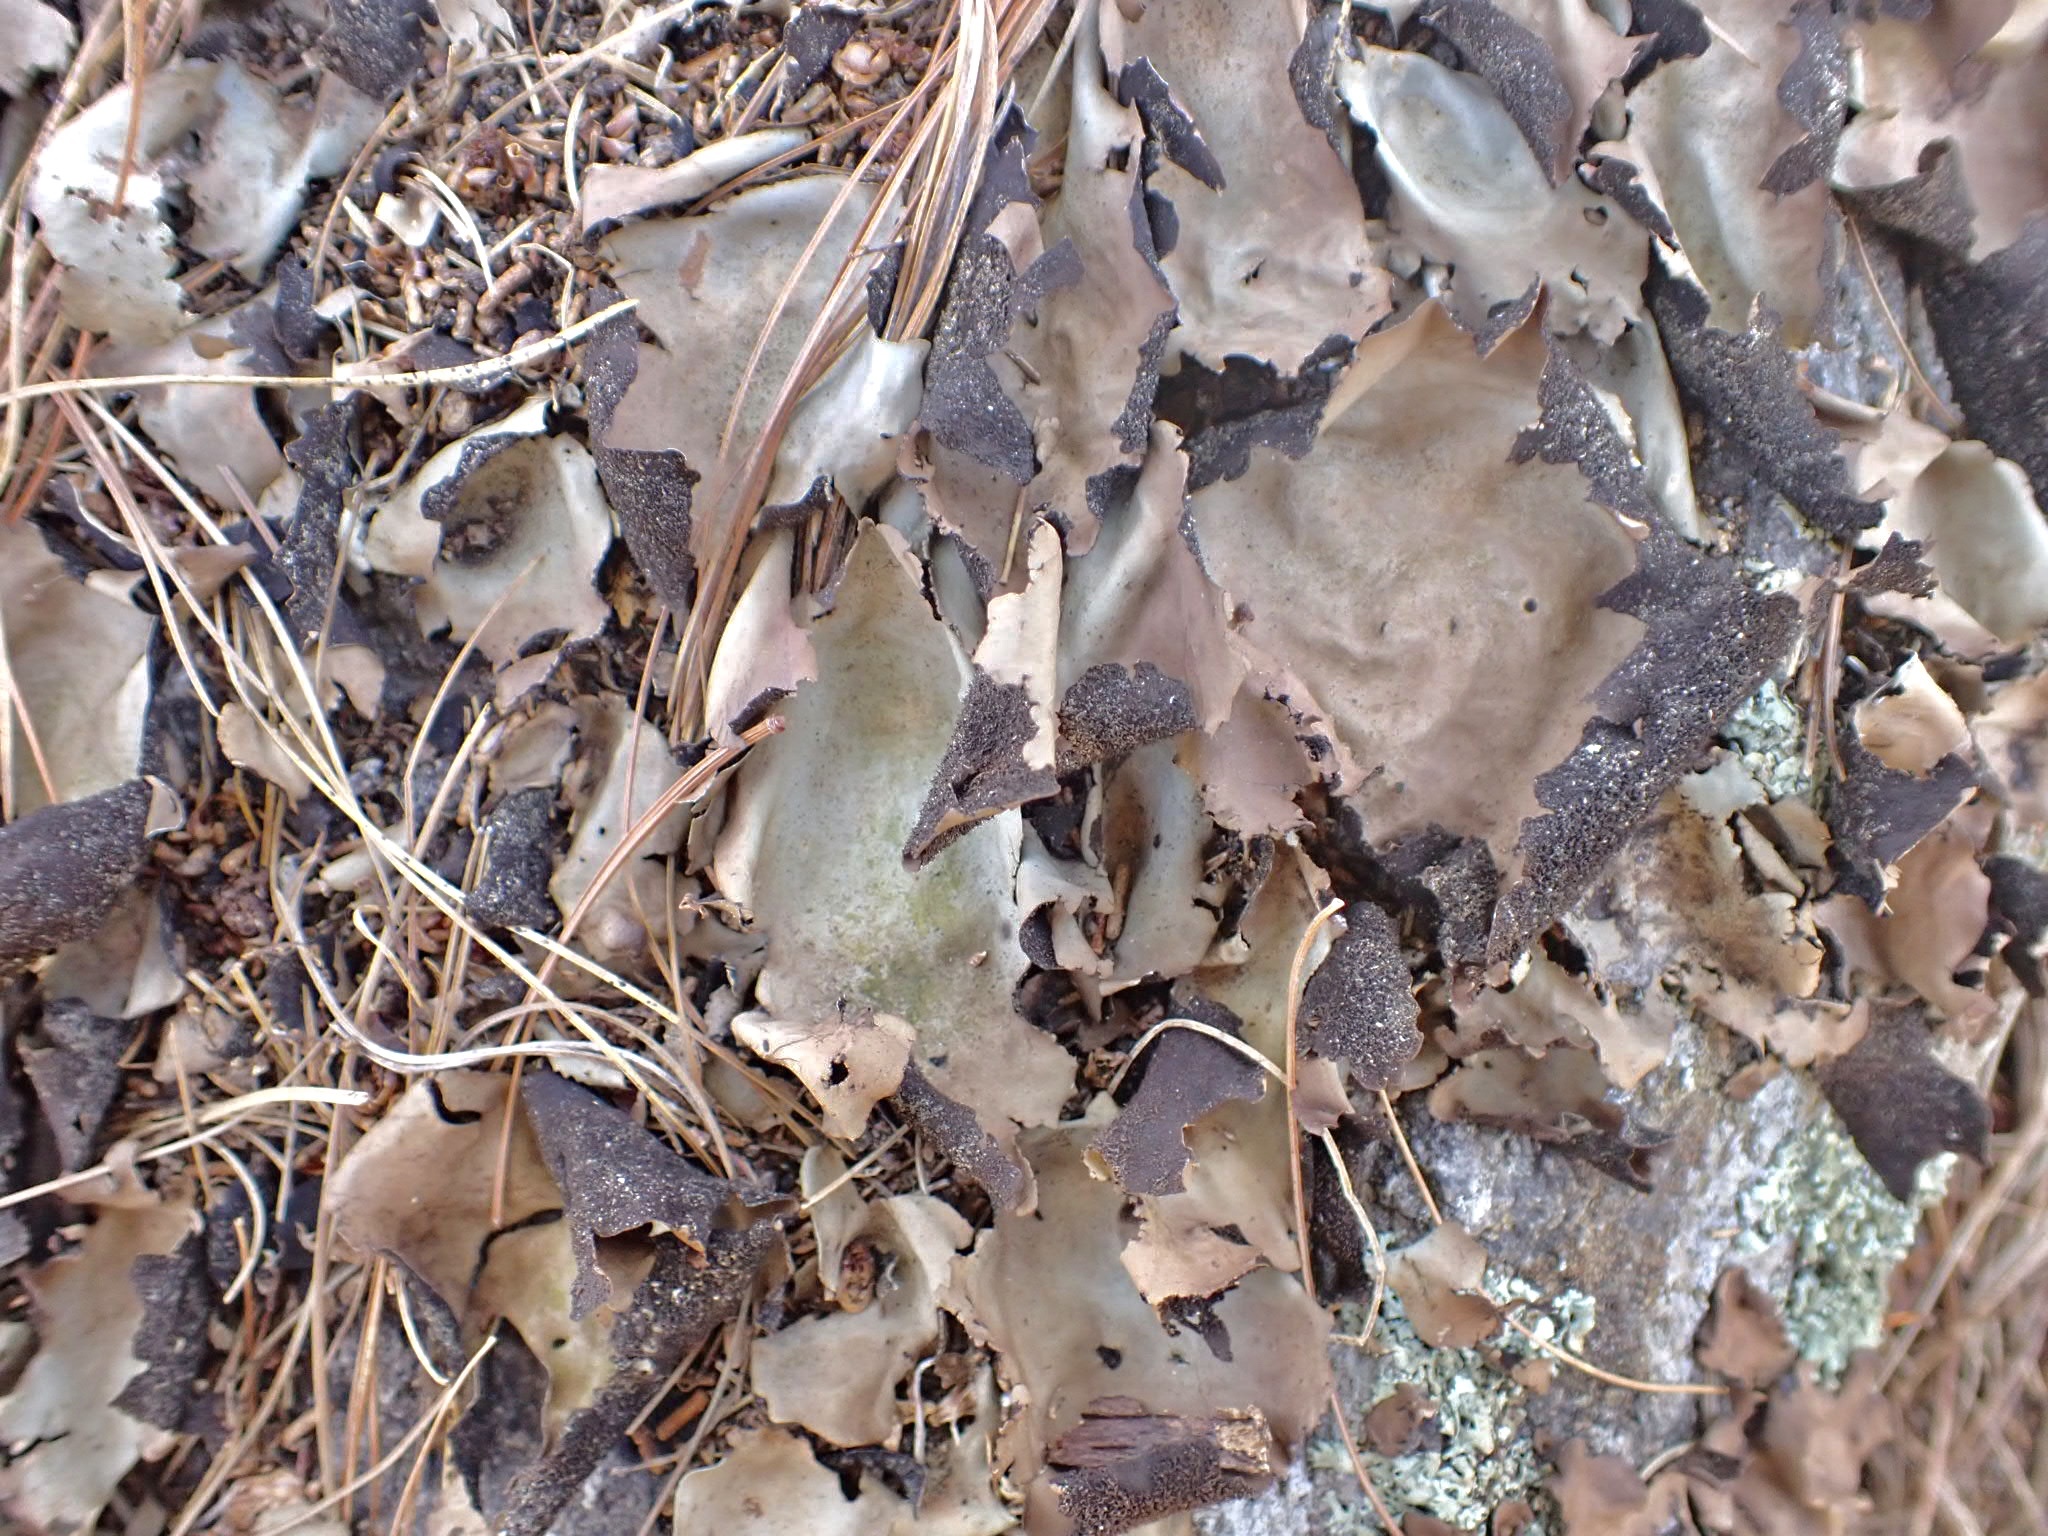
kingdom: Fungi
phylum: Ascomycota
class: Lecanoromycetes
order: Umbilicariales
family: Umbilicariaceae
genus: Umbilicaria
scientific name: Umbilicaria mammulata
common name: Smooth rock tripe
